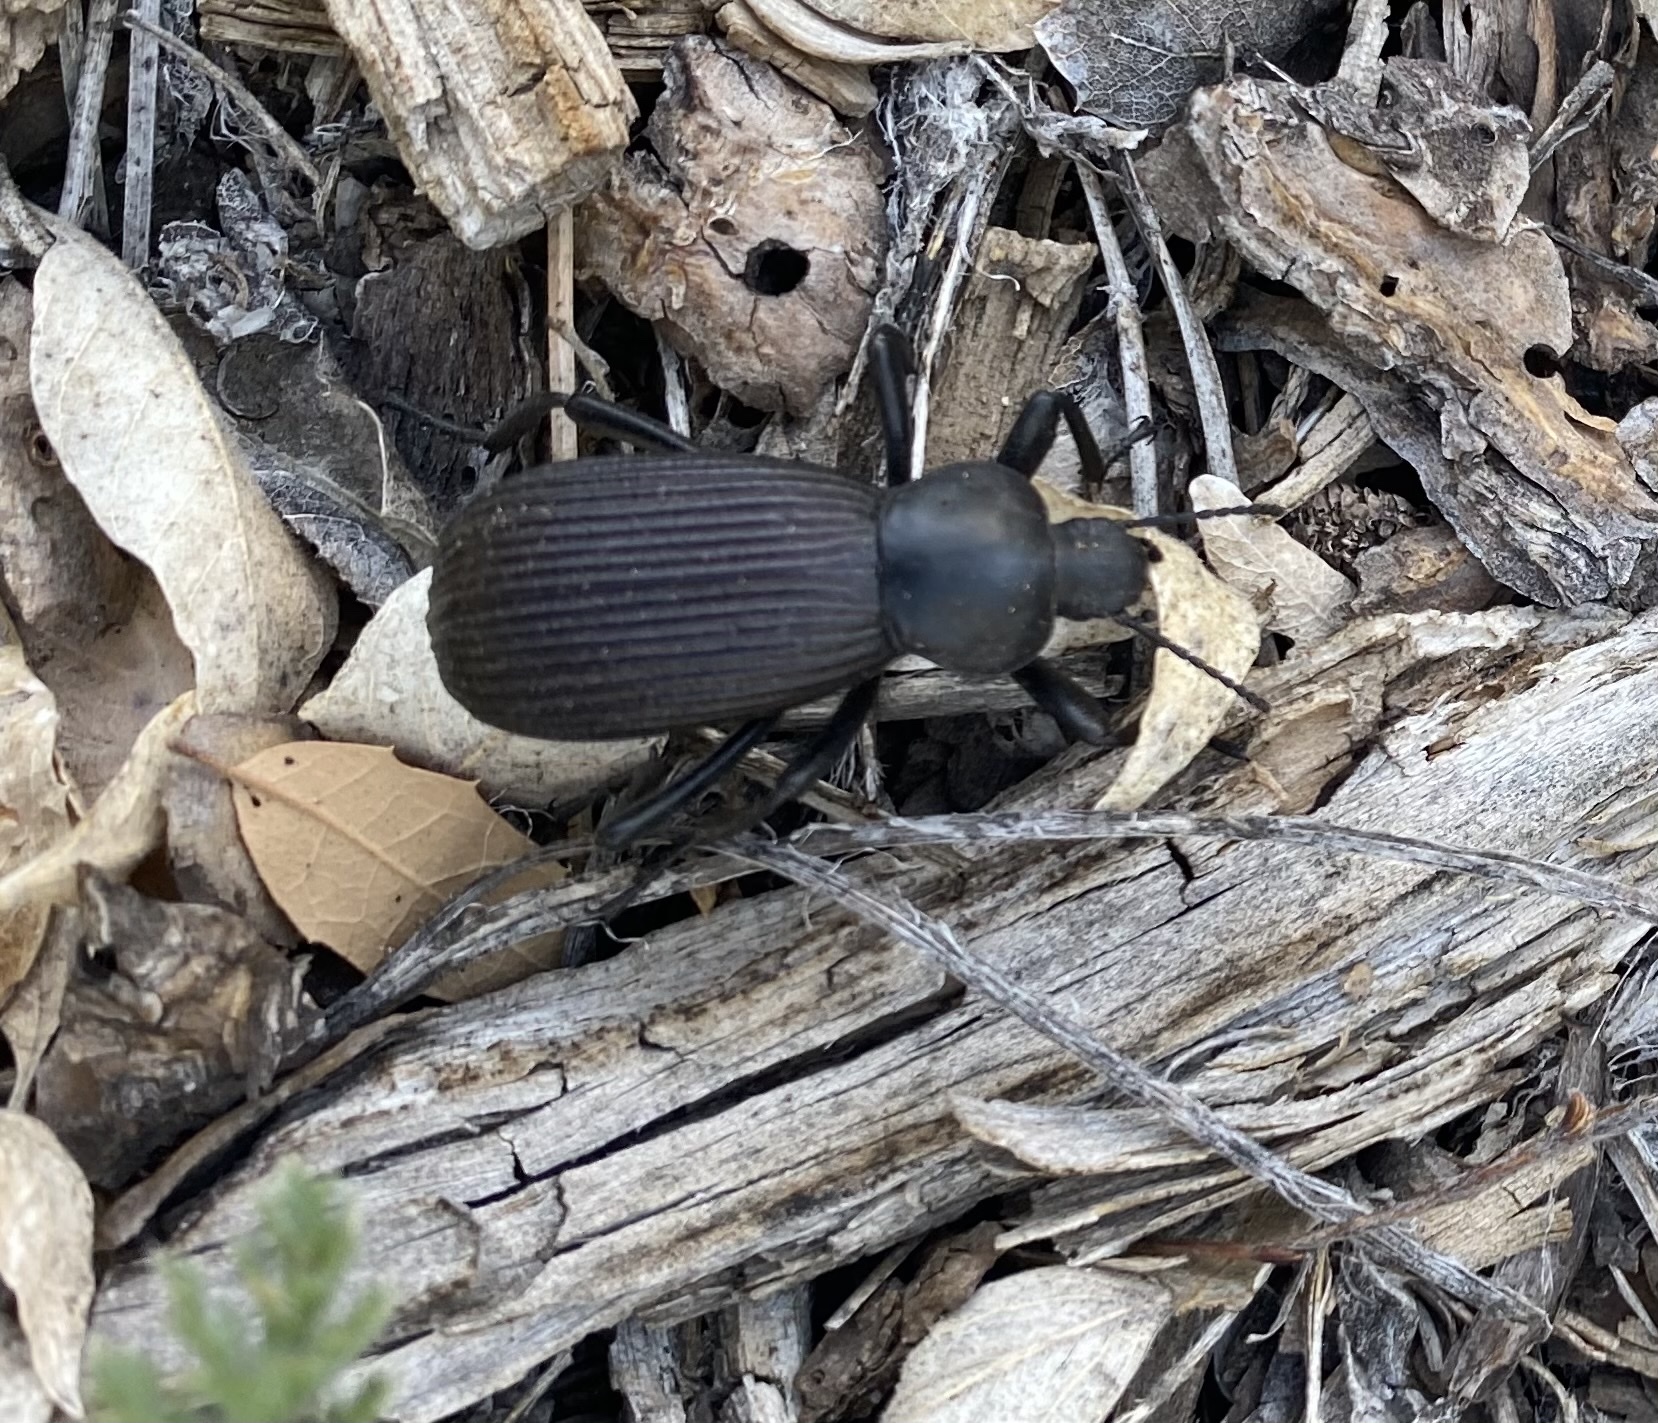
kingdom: Animalia
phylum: Arthropoda
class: Insecta
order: Coleoptera
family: Tenebrionidae
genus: Eleodes
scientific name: Eleodes obscura
